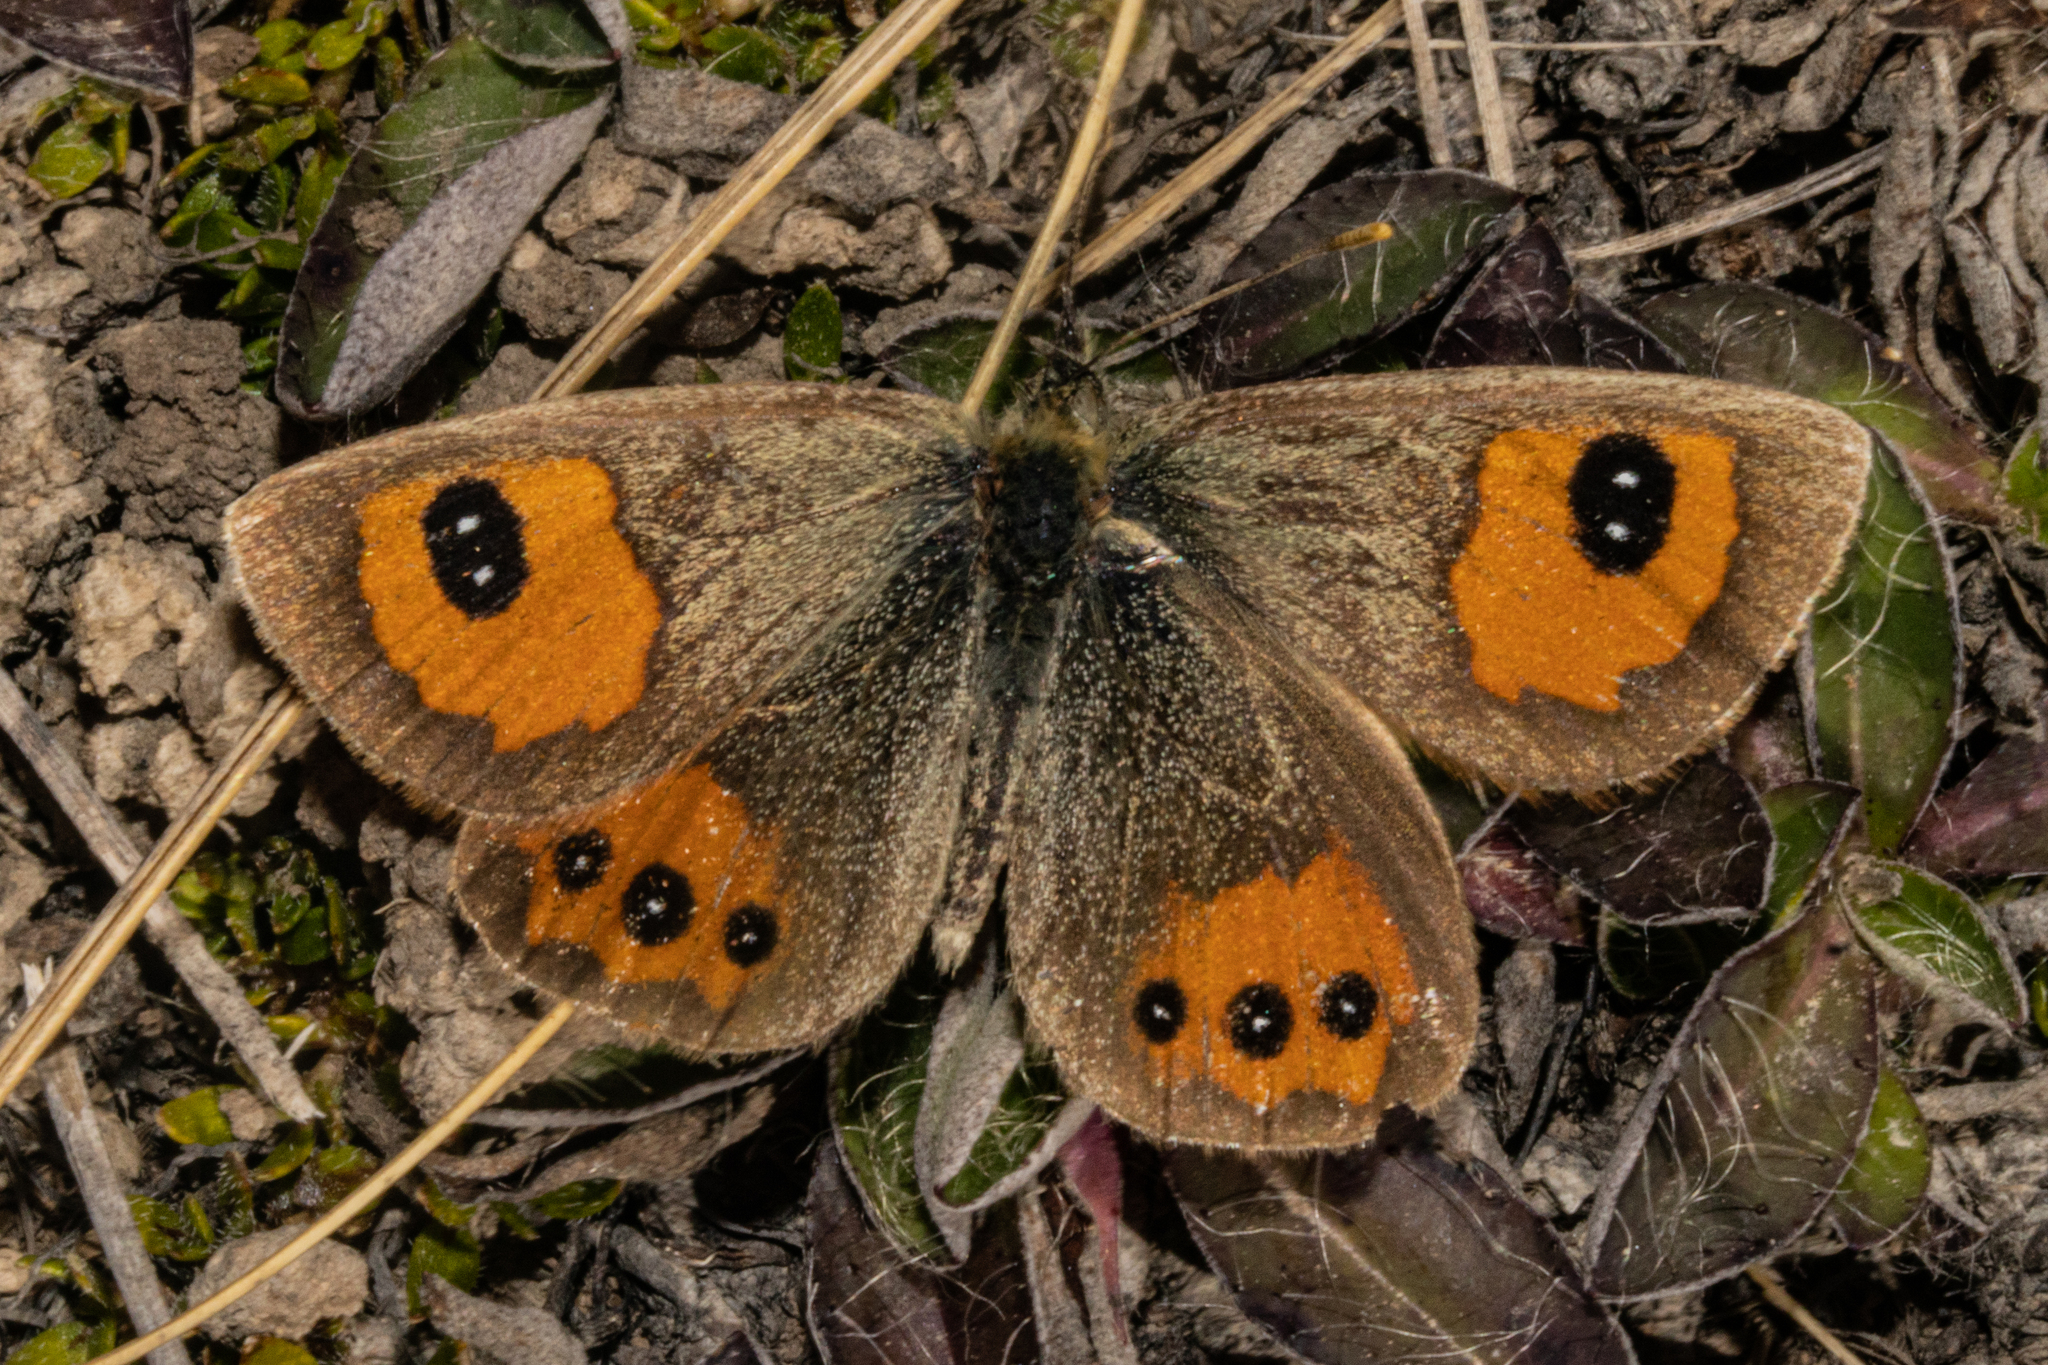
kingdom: Animalia
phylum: Arthropoda
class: Insecta
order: Lepidoptera
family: Nymphalidae
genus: Argyrophenga
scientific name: Argyrophenga antipodum
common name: Common tussock butterfly
